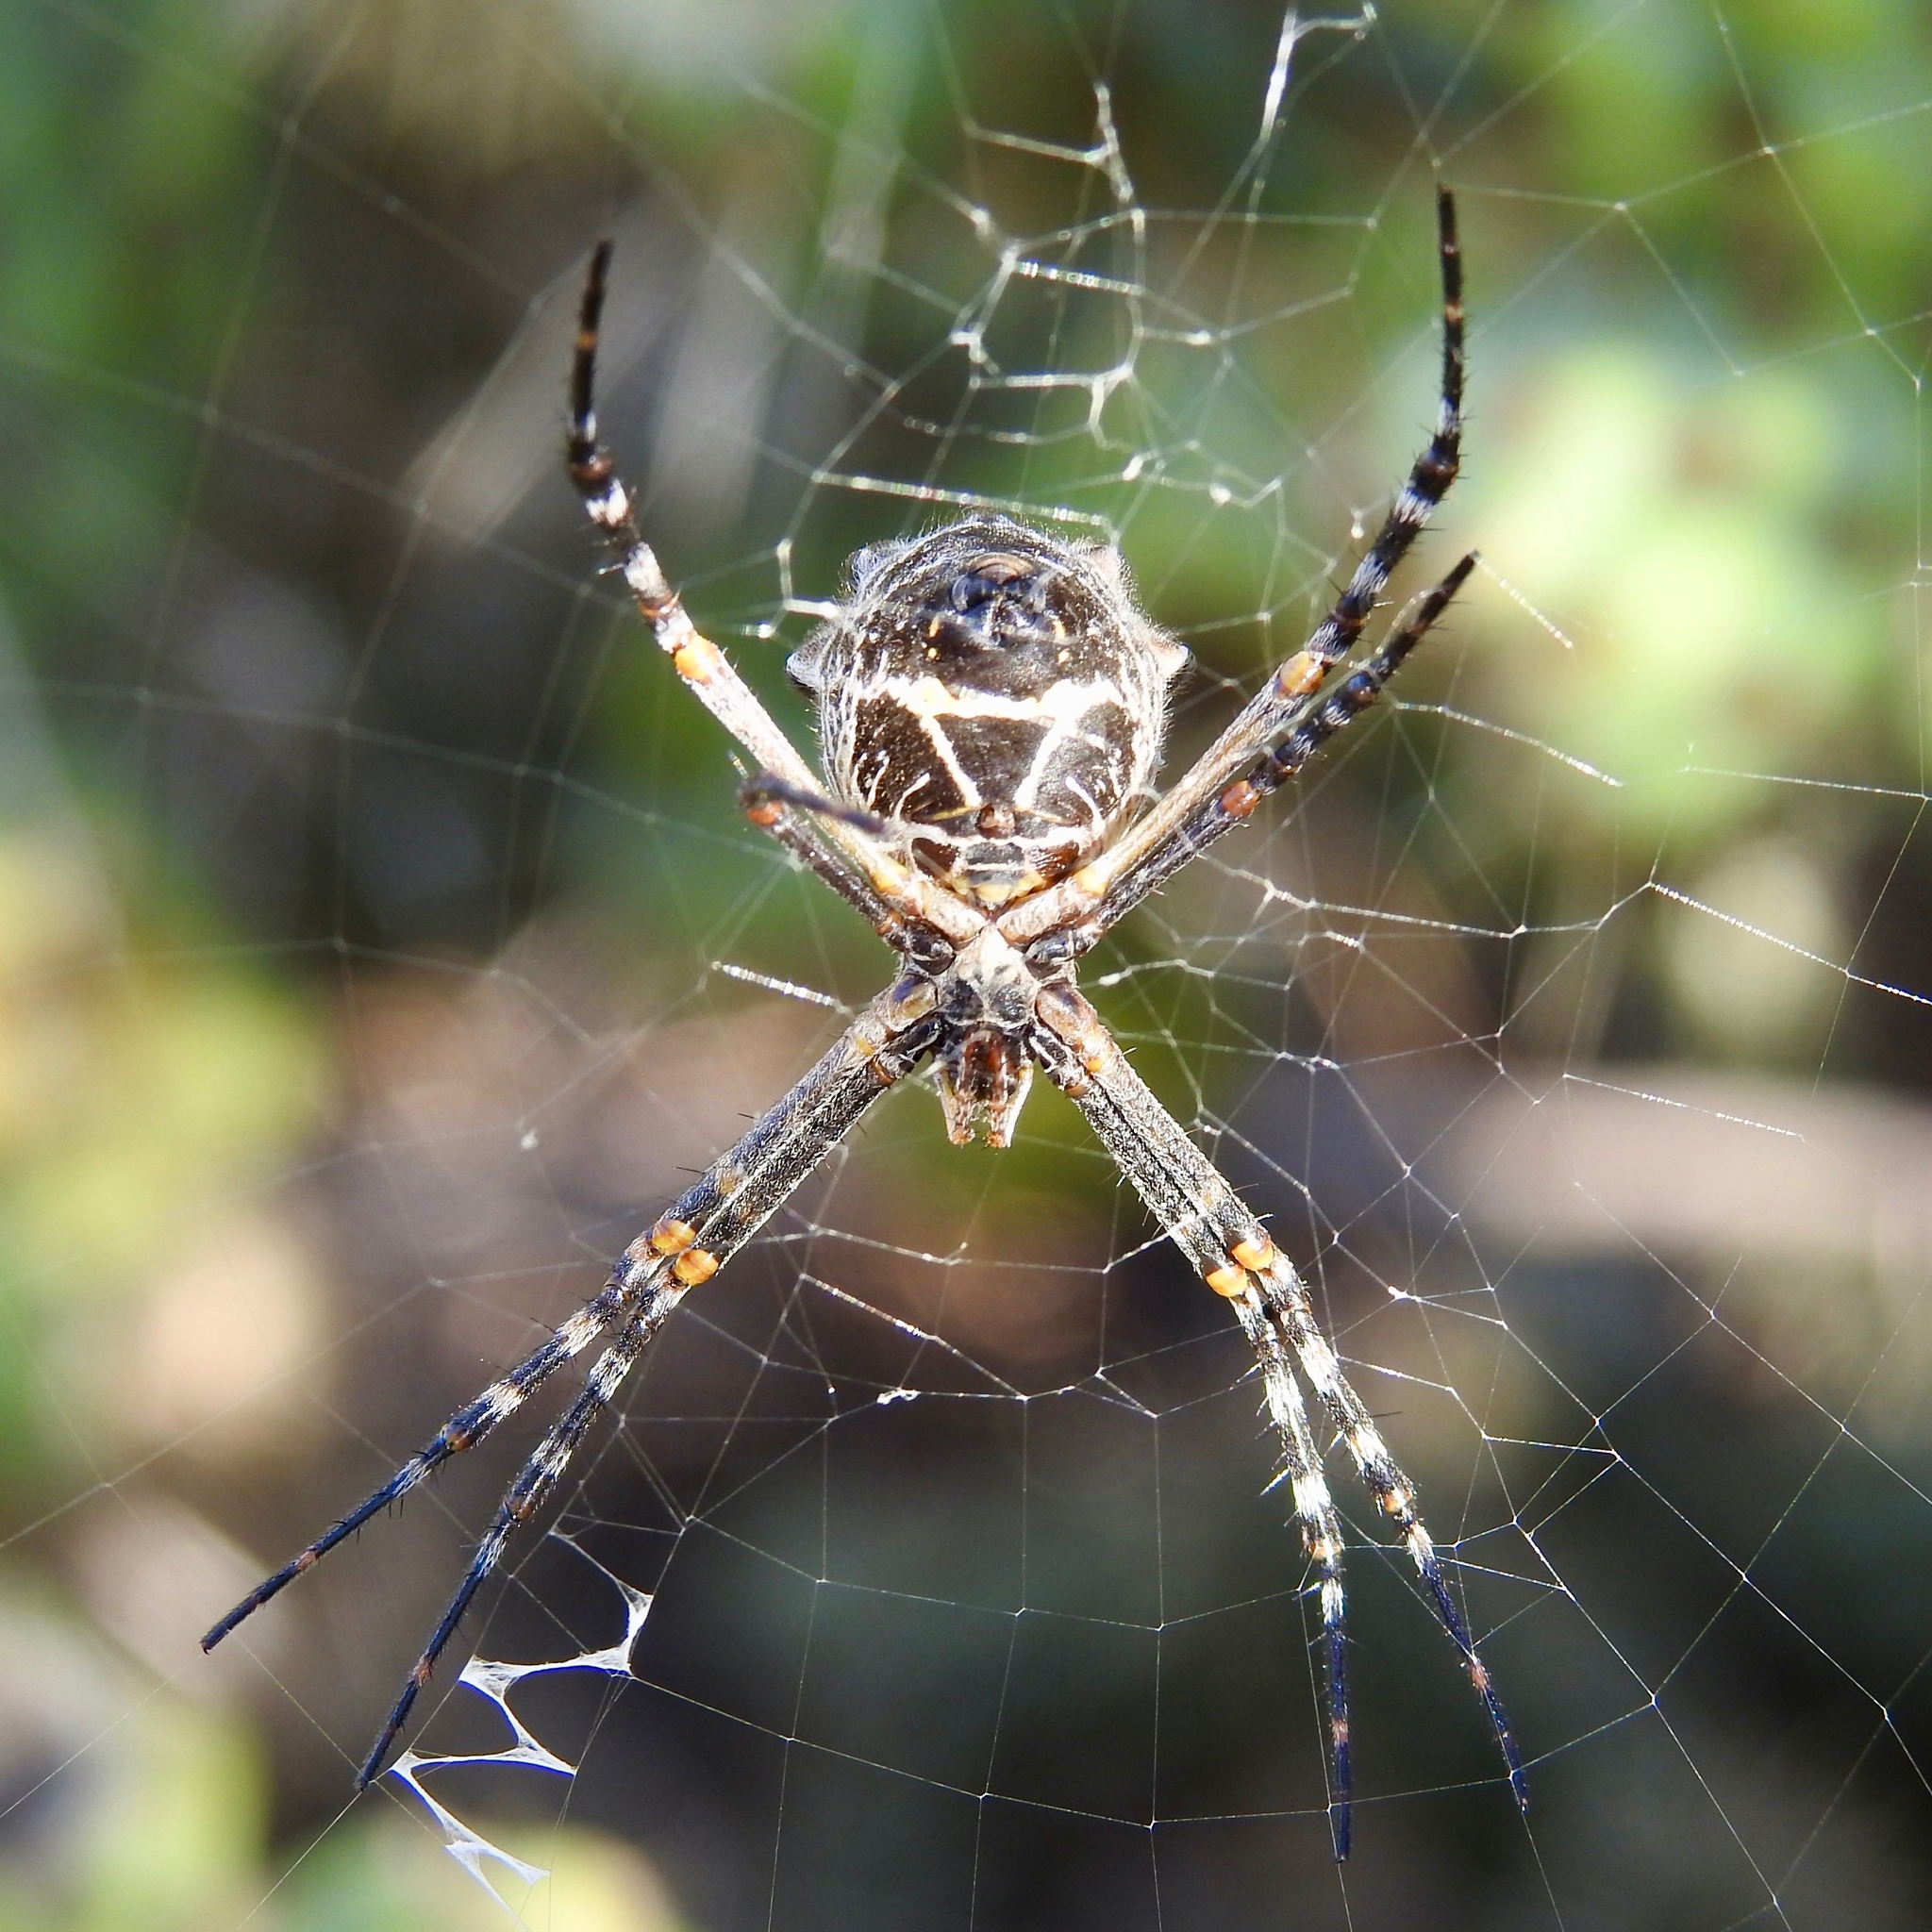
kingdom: Animalia
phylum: Arthropoda
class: Arachnida
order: Araneae
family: Araneidae
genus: Argiope
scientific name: Argiope argentata
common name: Orb weavers
